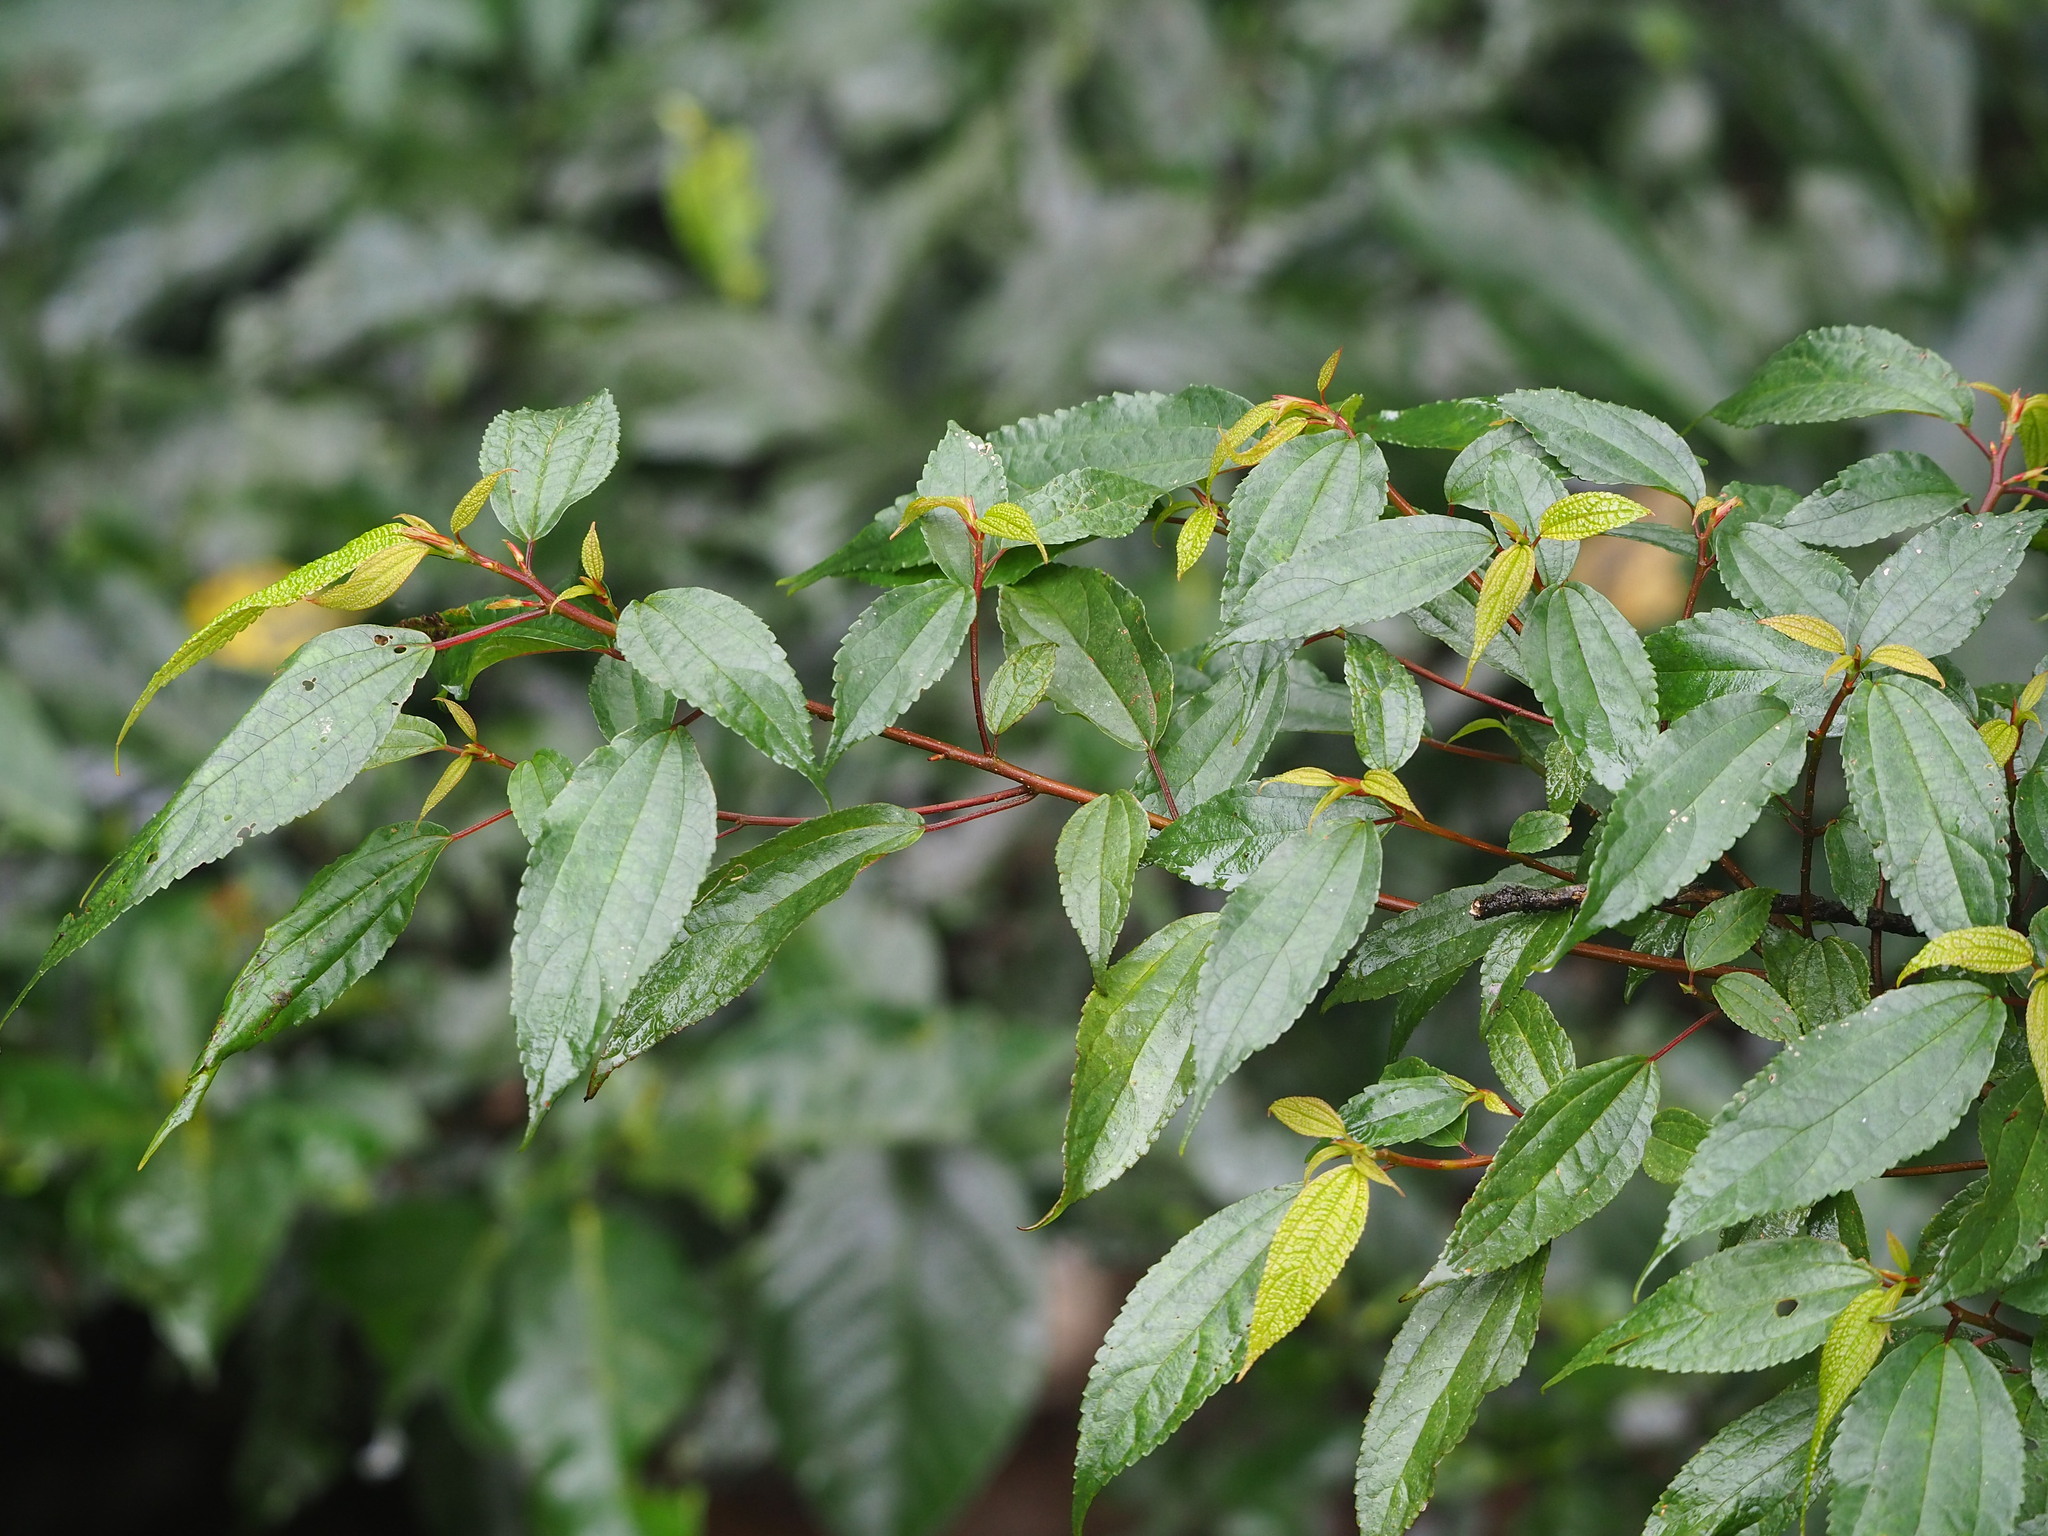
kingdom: Plantae
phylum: Tracheophyta
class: Magnoliopsida
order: Rosales
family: Urticaceae
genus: Oreocnide
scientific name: Oreocnide pedunculata
